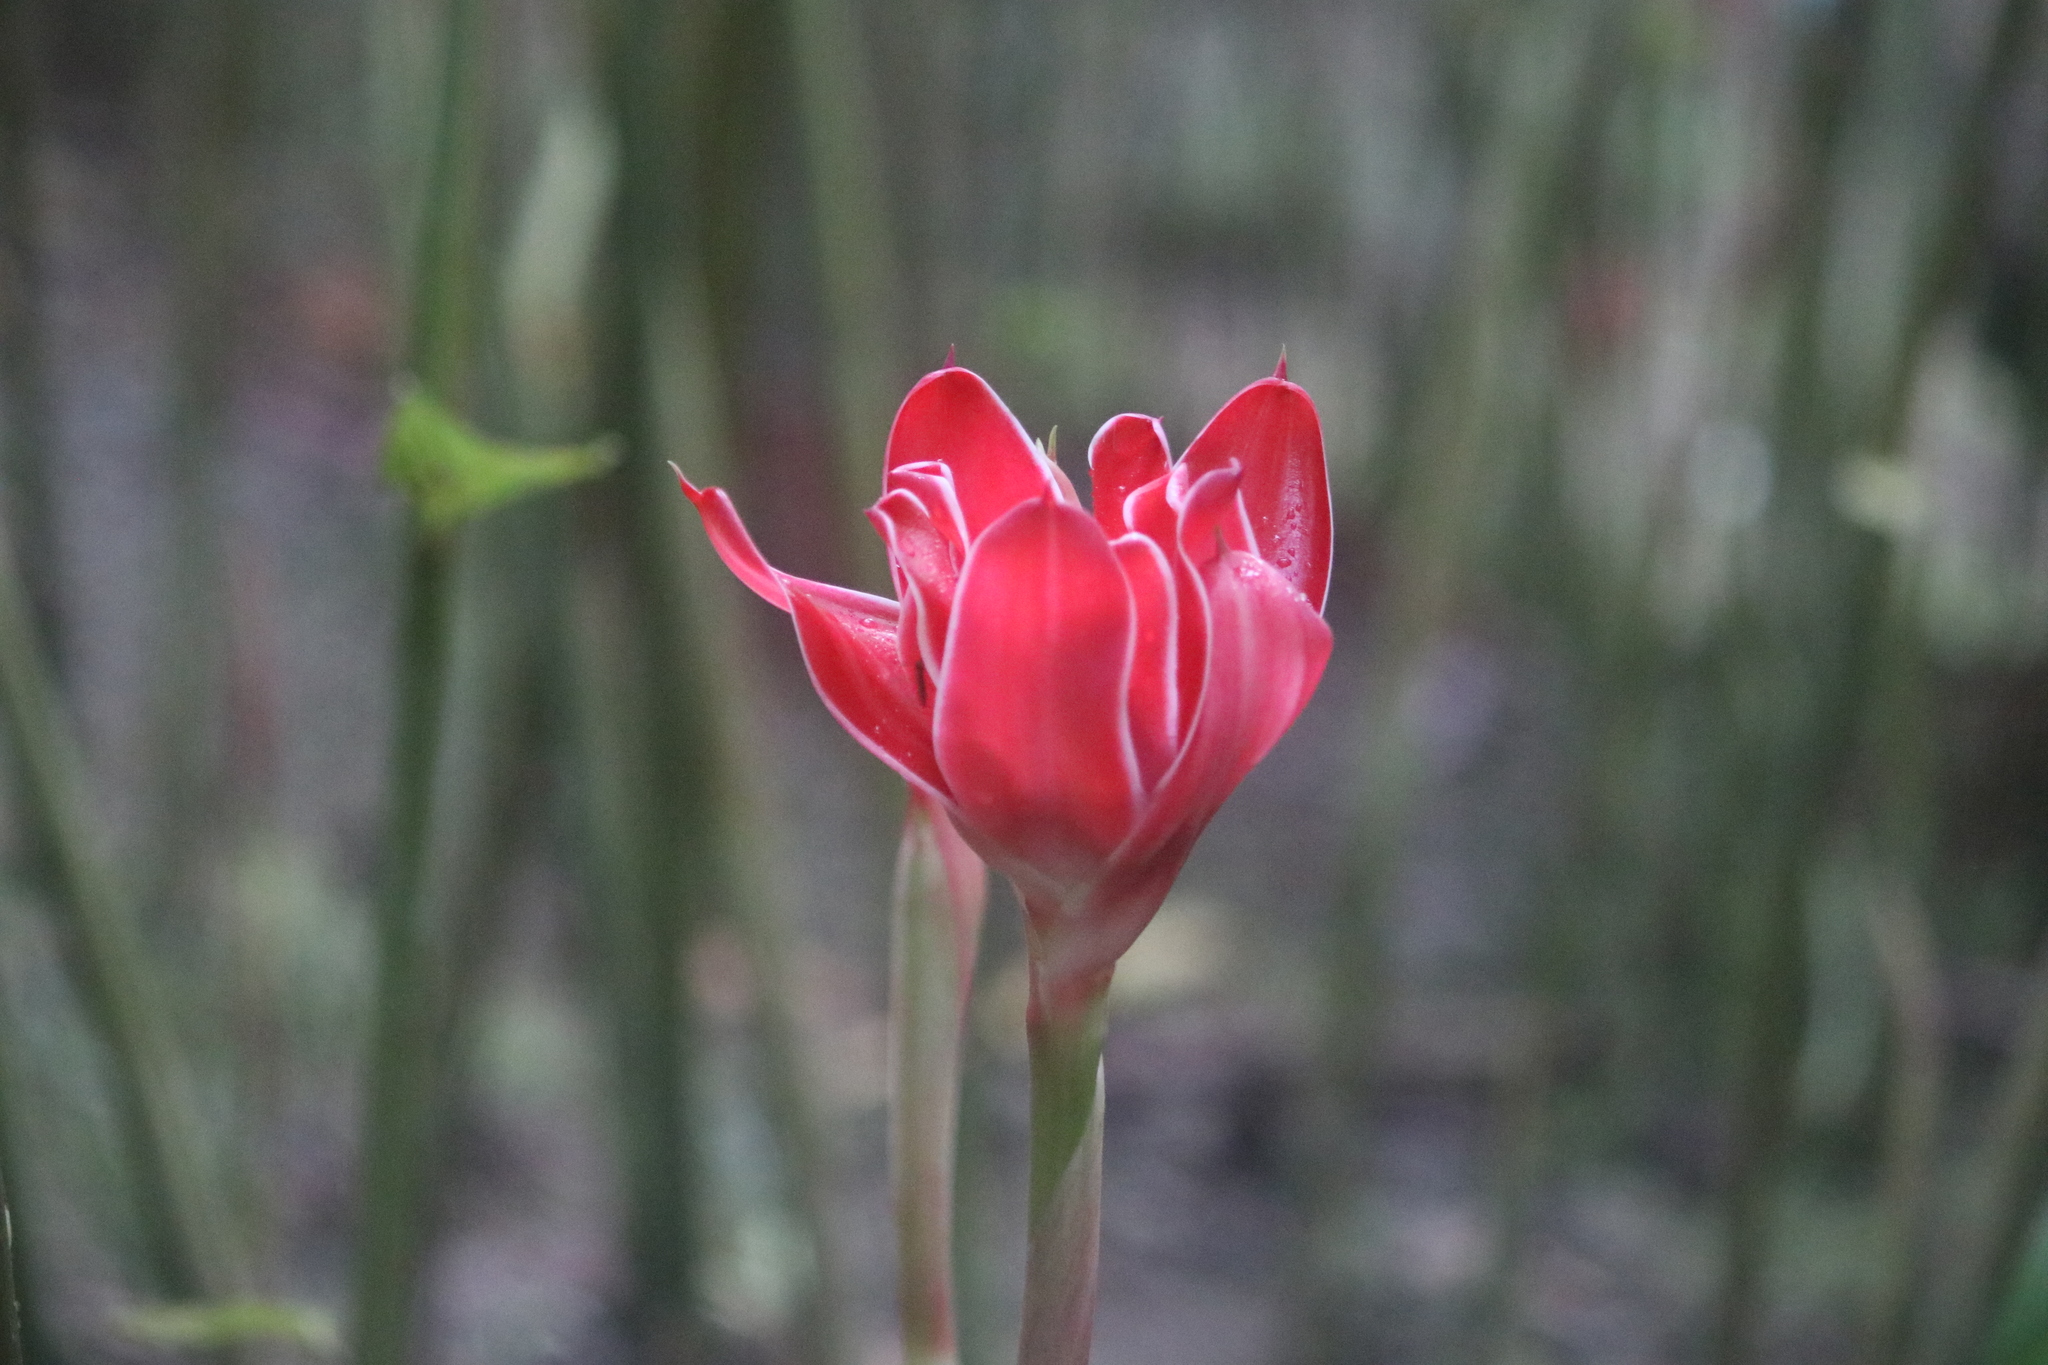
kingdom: Plantae
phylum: Tracheophyta
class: Liliopsida
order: Zingiberales
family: Zingiberaceae
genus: Etlingera
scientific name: Etlingera elatior
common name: Philippine waxflower
